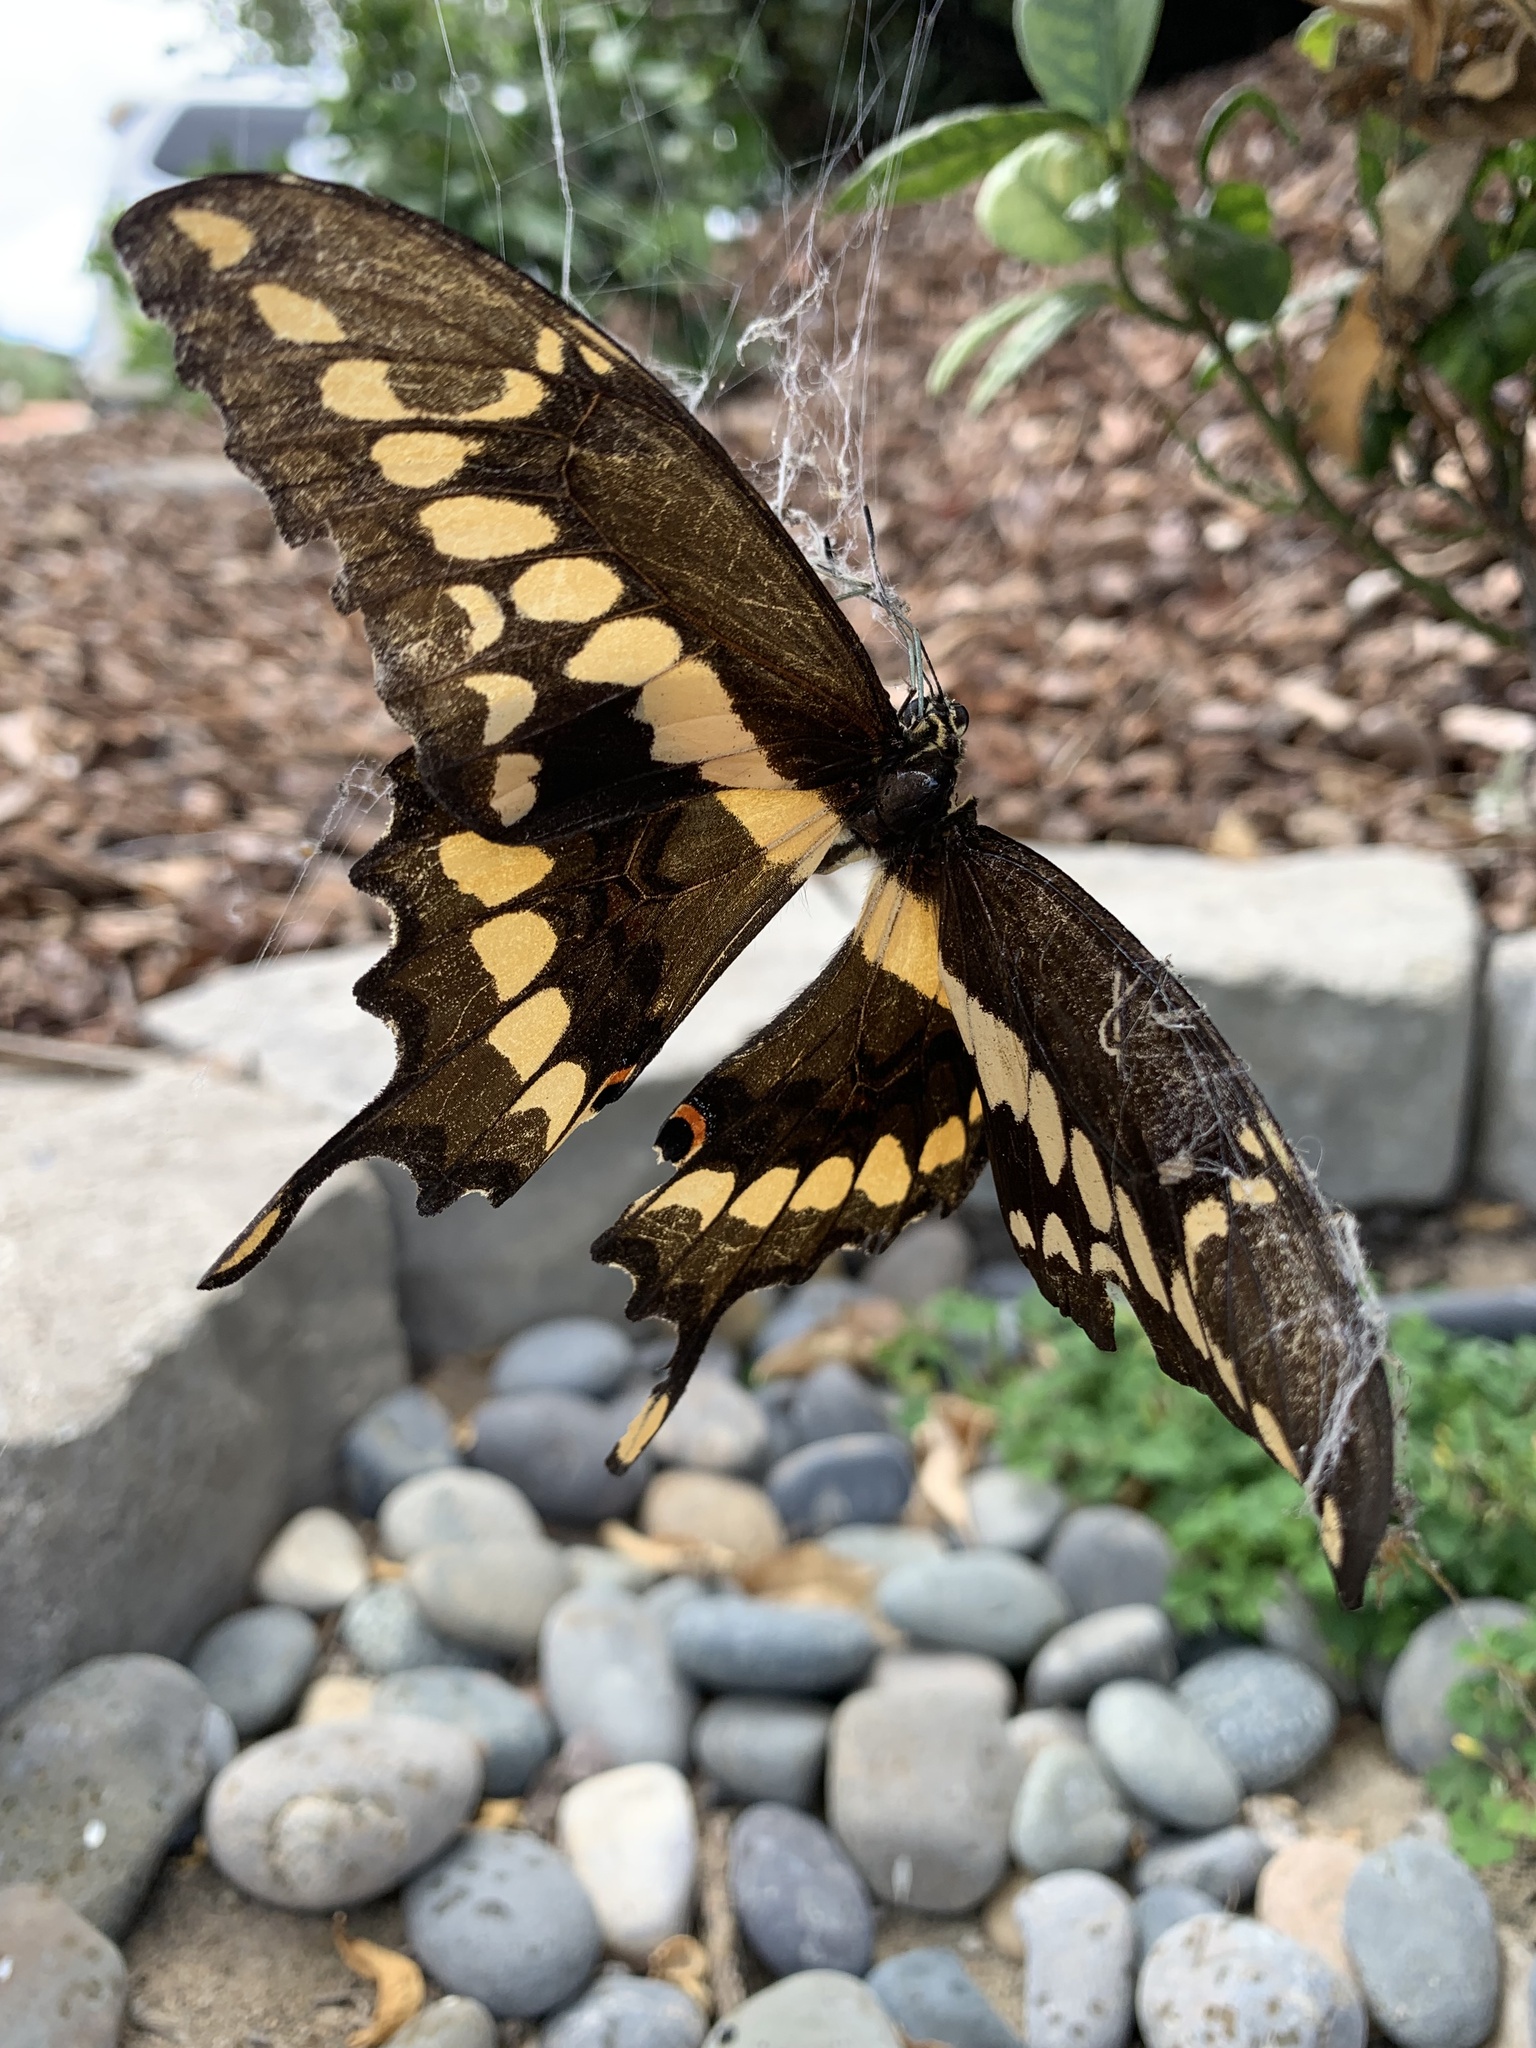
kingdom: Animalia
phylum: Arthropoda
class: Insecta
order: Lepidoptera
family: Papilionidae
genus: Papilio
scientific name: Papilio rumiko
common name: Western giant swallowtail
